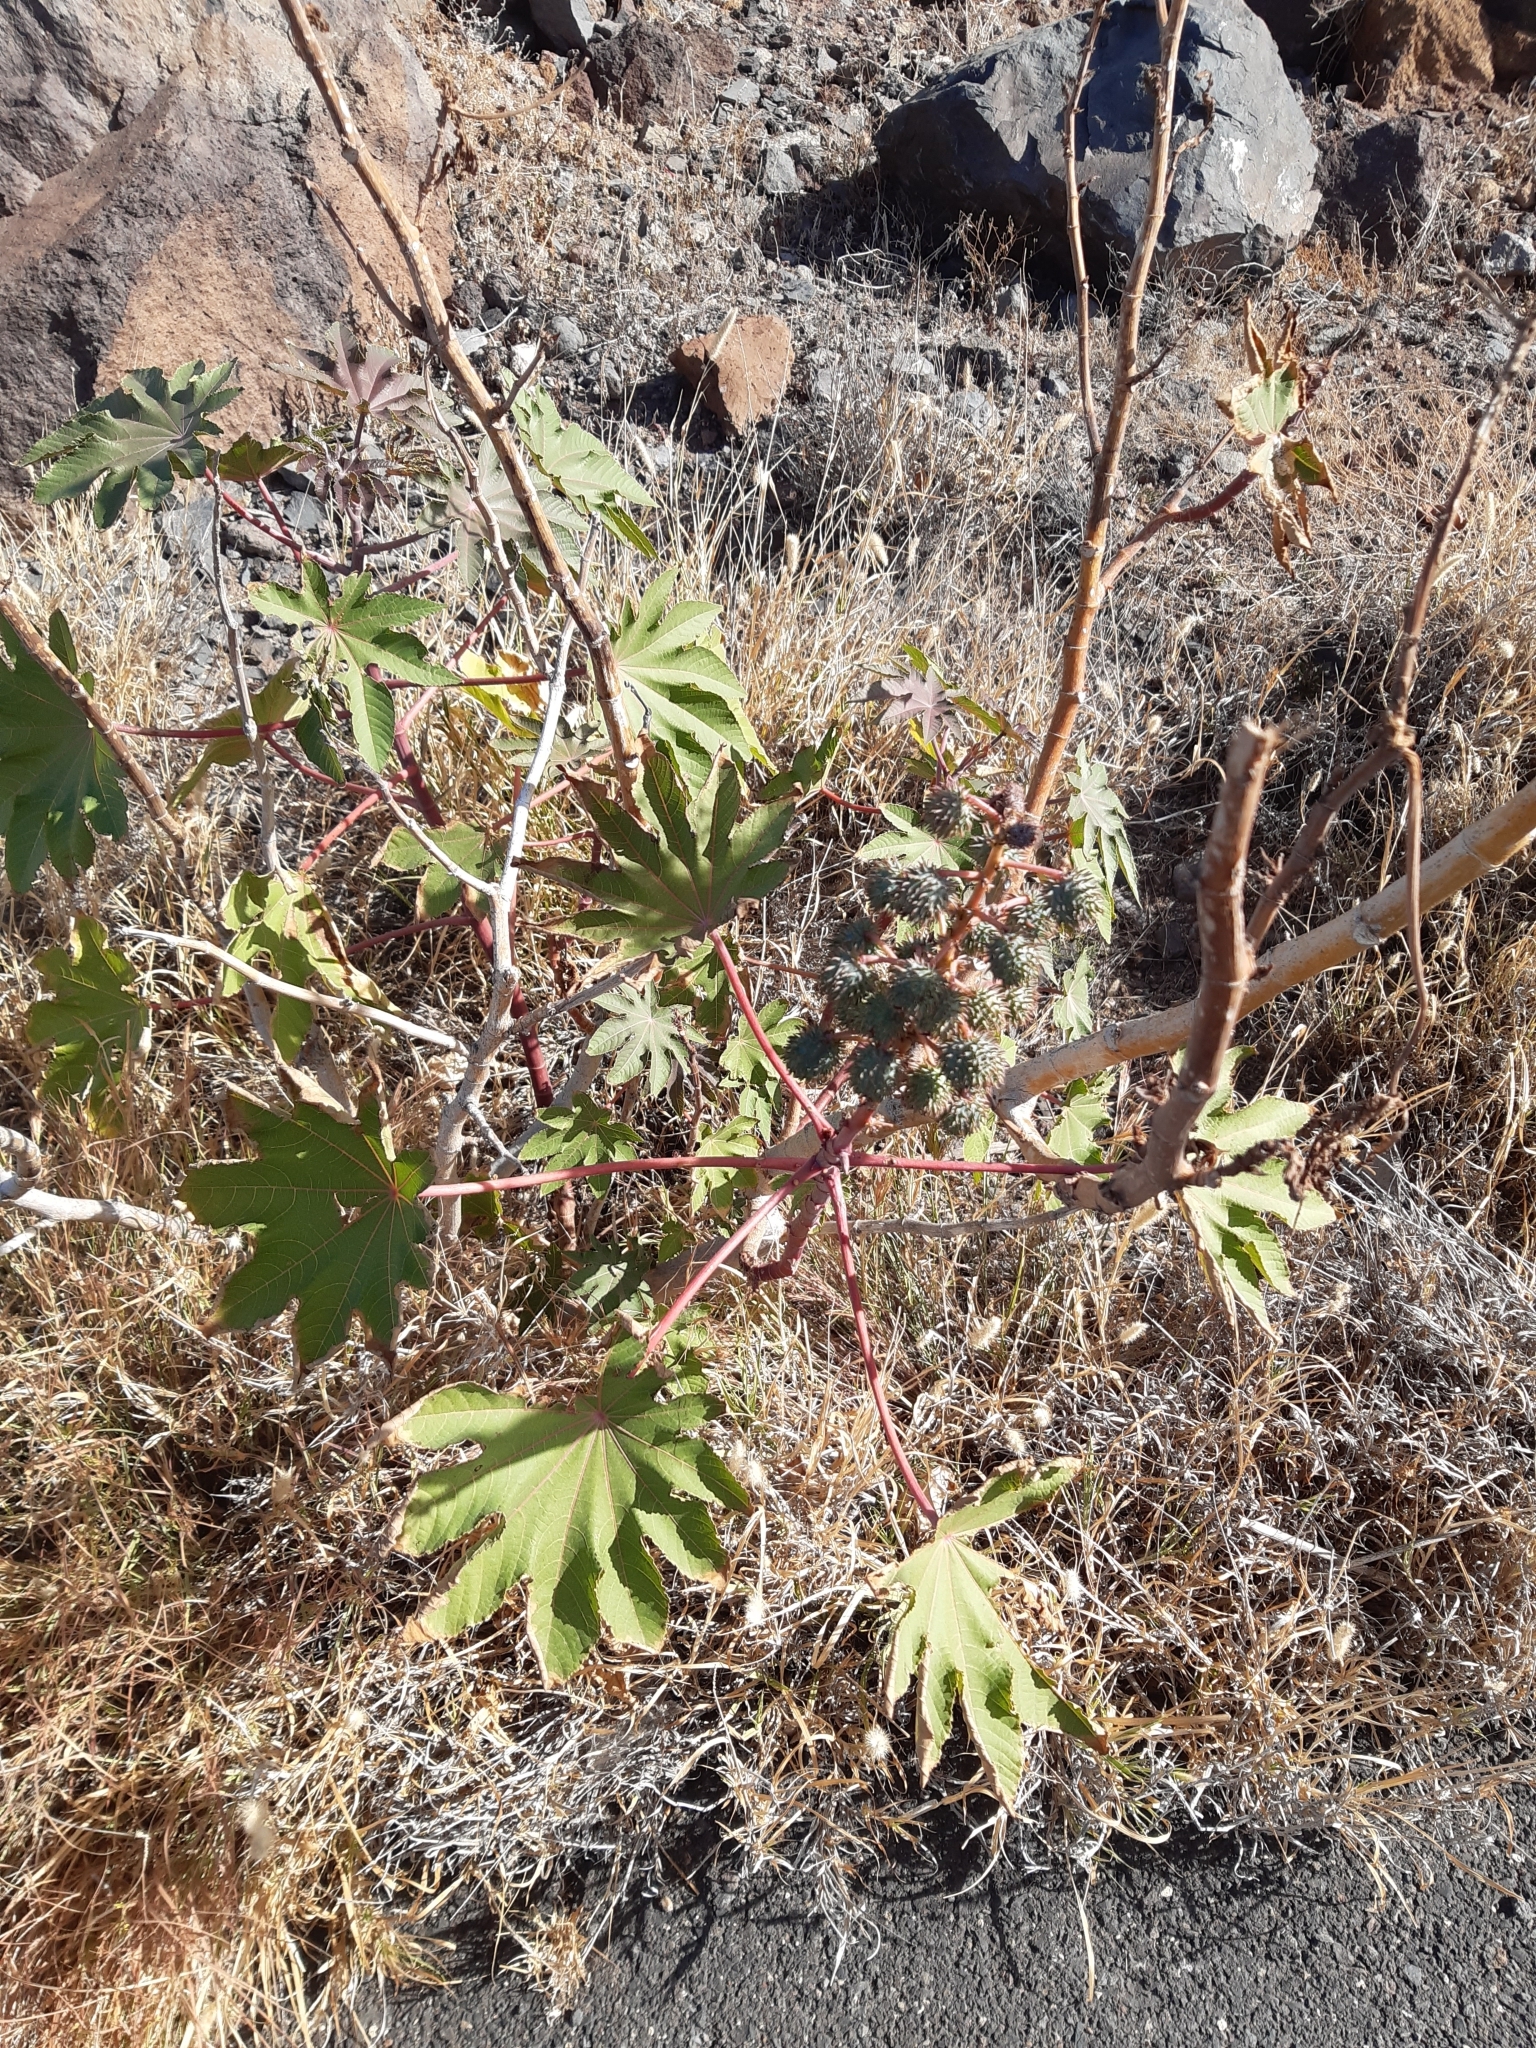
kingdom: Plantae
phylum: Tracheophyta
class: Magnoliopsida
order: Malpighiales
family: Euphorbiaceae
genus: Ricinus
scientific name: Ricinus communis
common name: Castor-oil-plant
